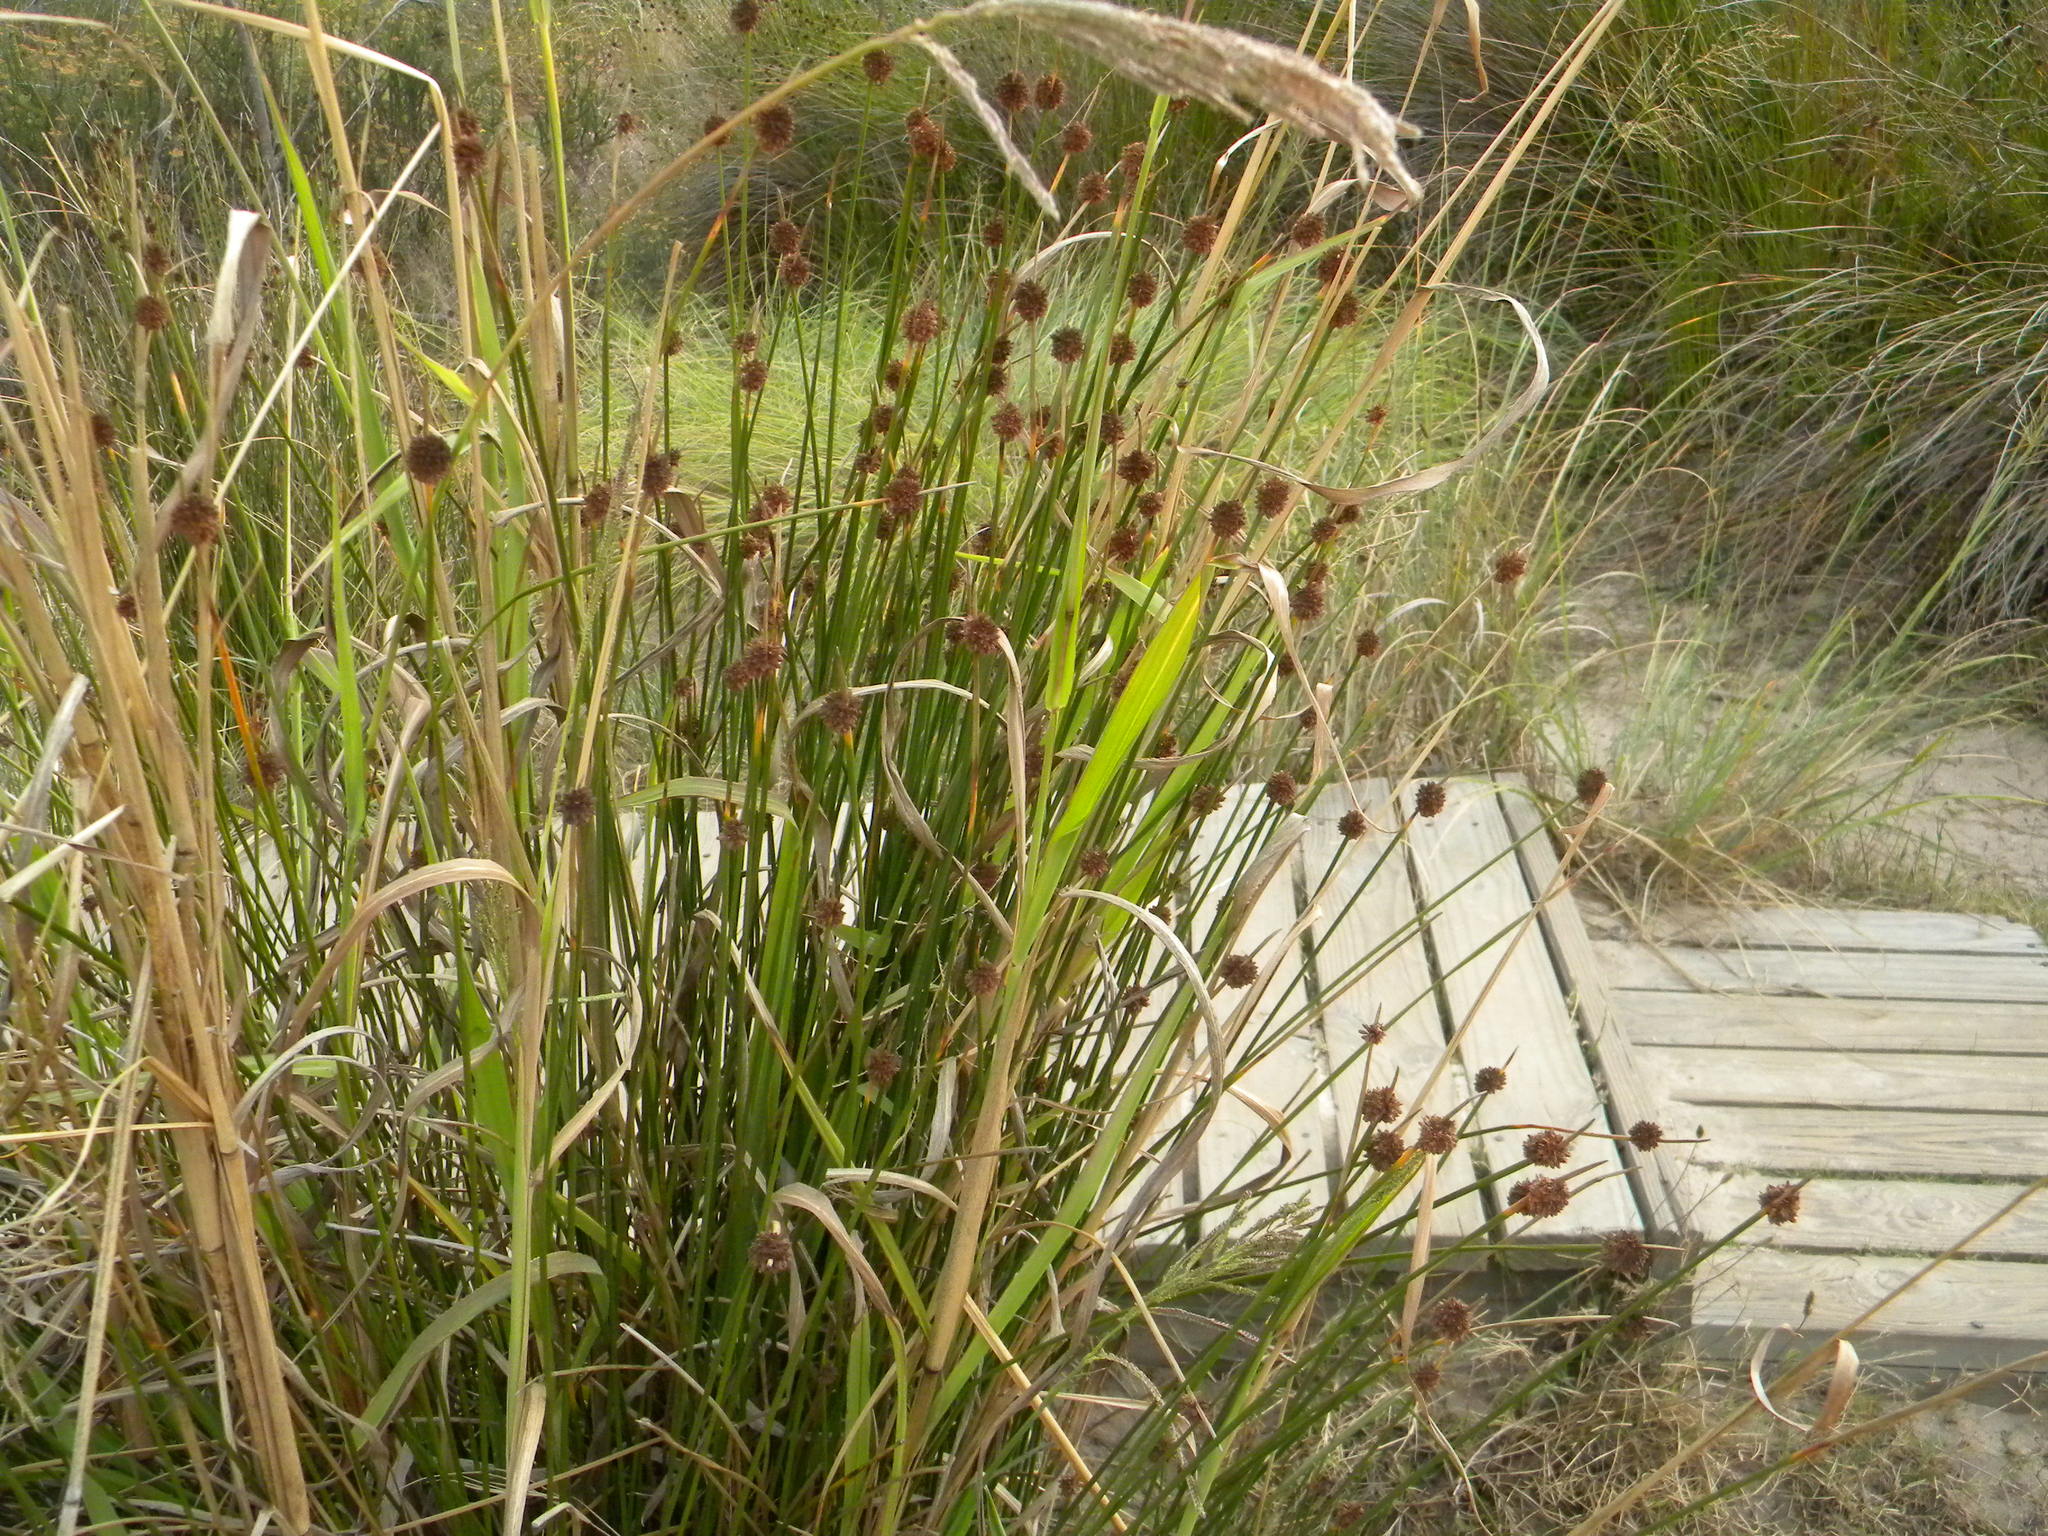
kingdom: Plantae
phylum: Tracheophyta
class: Liliopsida
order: Poales
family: Cyperaceae
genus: Ficinia
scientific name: Ficinia nodosa
